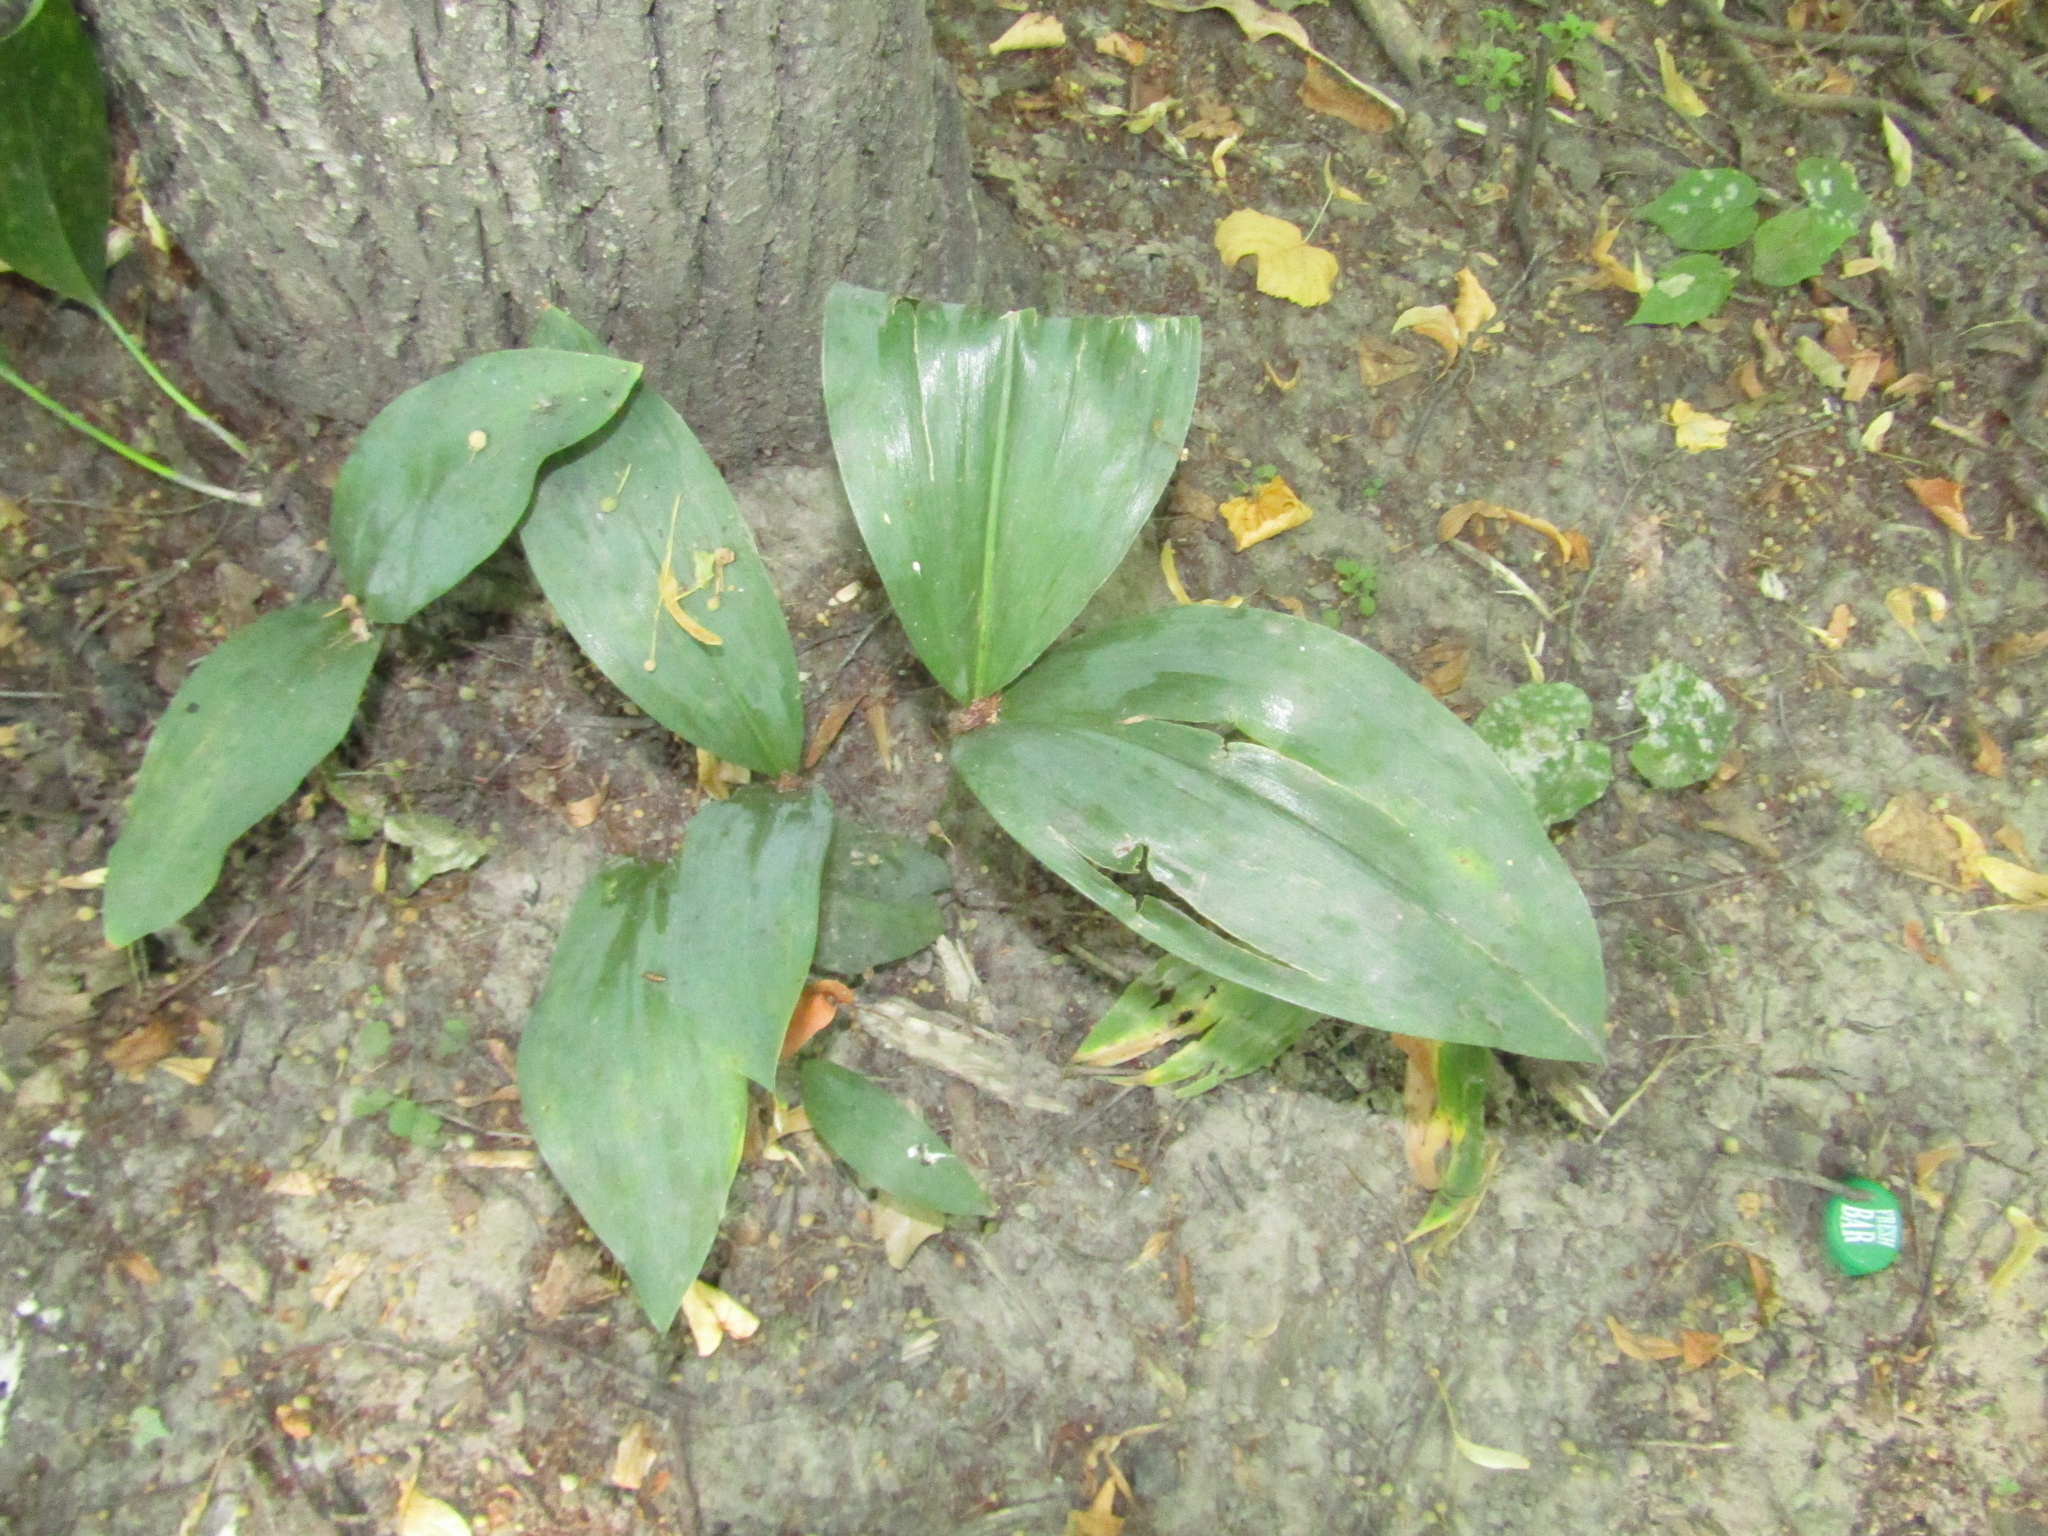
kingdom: Plantae
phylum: Tracheophyta
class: Liliopsida
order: Asparagales
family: Asparagaceae
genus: Convallaria
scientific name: Convallaria majalis
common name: Lily-of-the-valley
